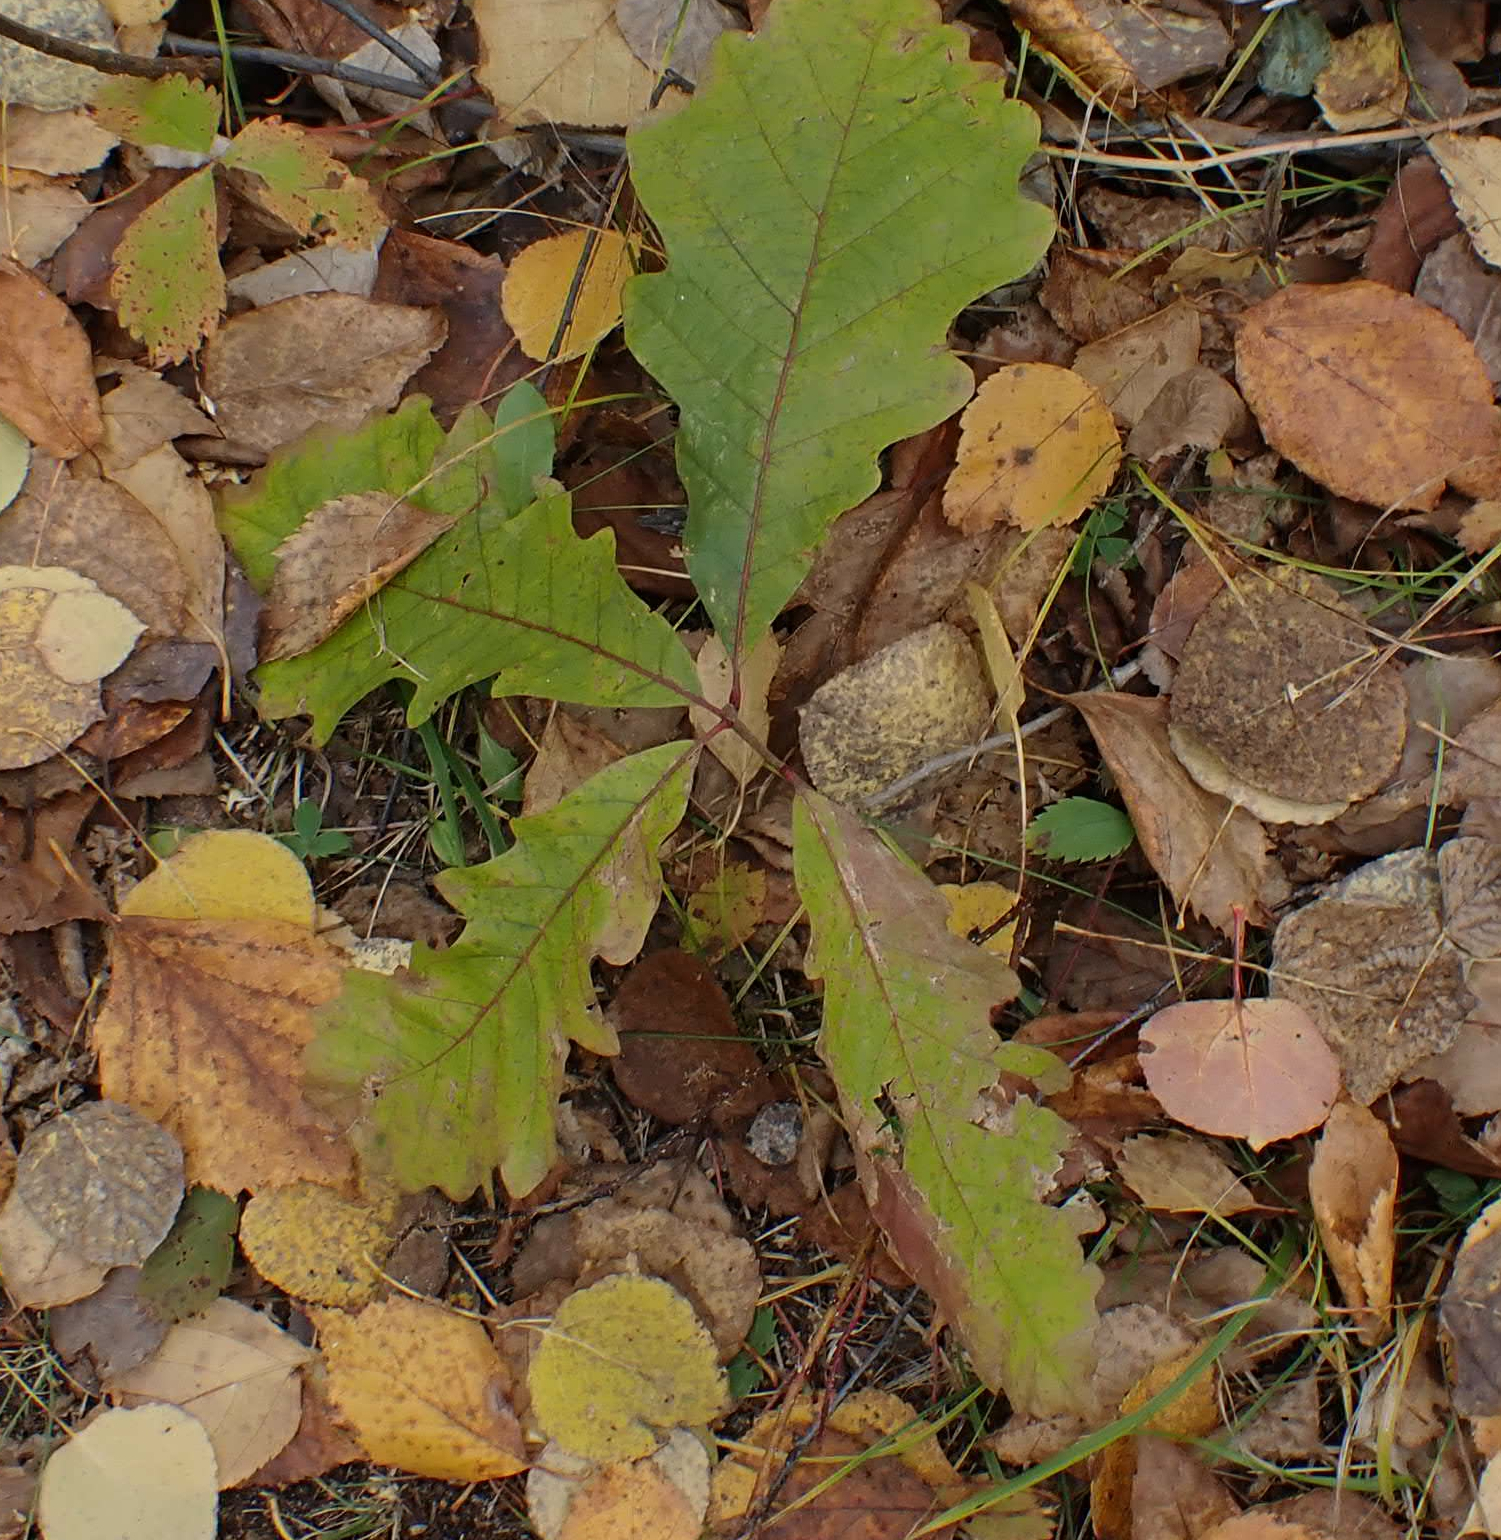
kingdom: Plantae
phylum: Tracheophyta
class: Magnoliopsida
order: Fagales
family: Fagaceae
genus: Quercus
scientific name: Quercus macrocarpa
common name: Bur oak
